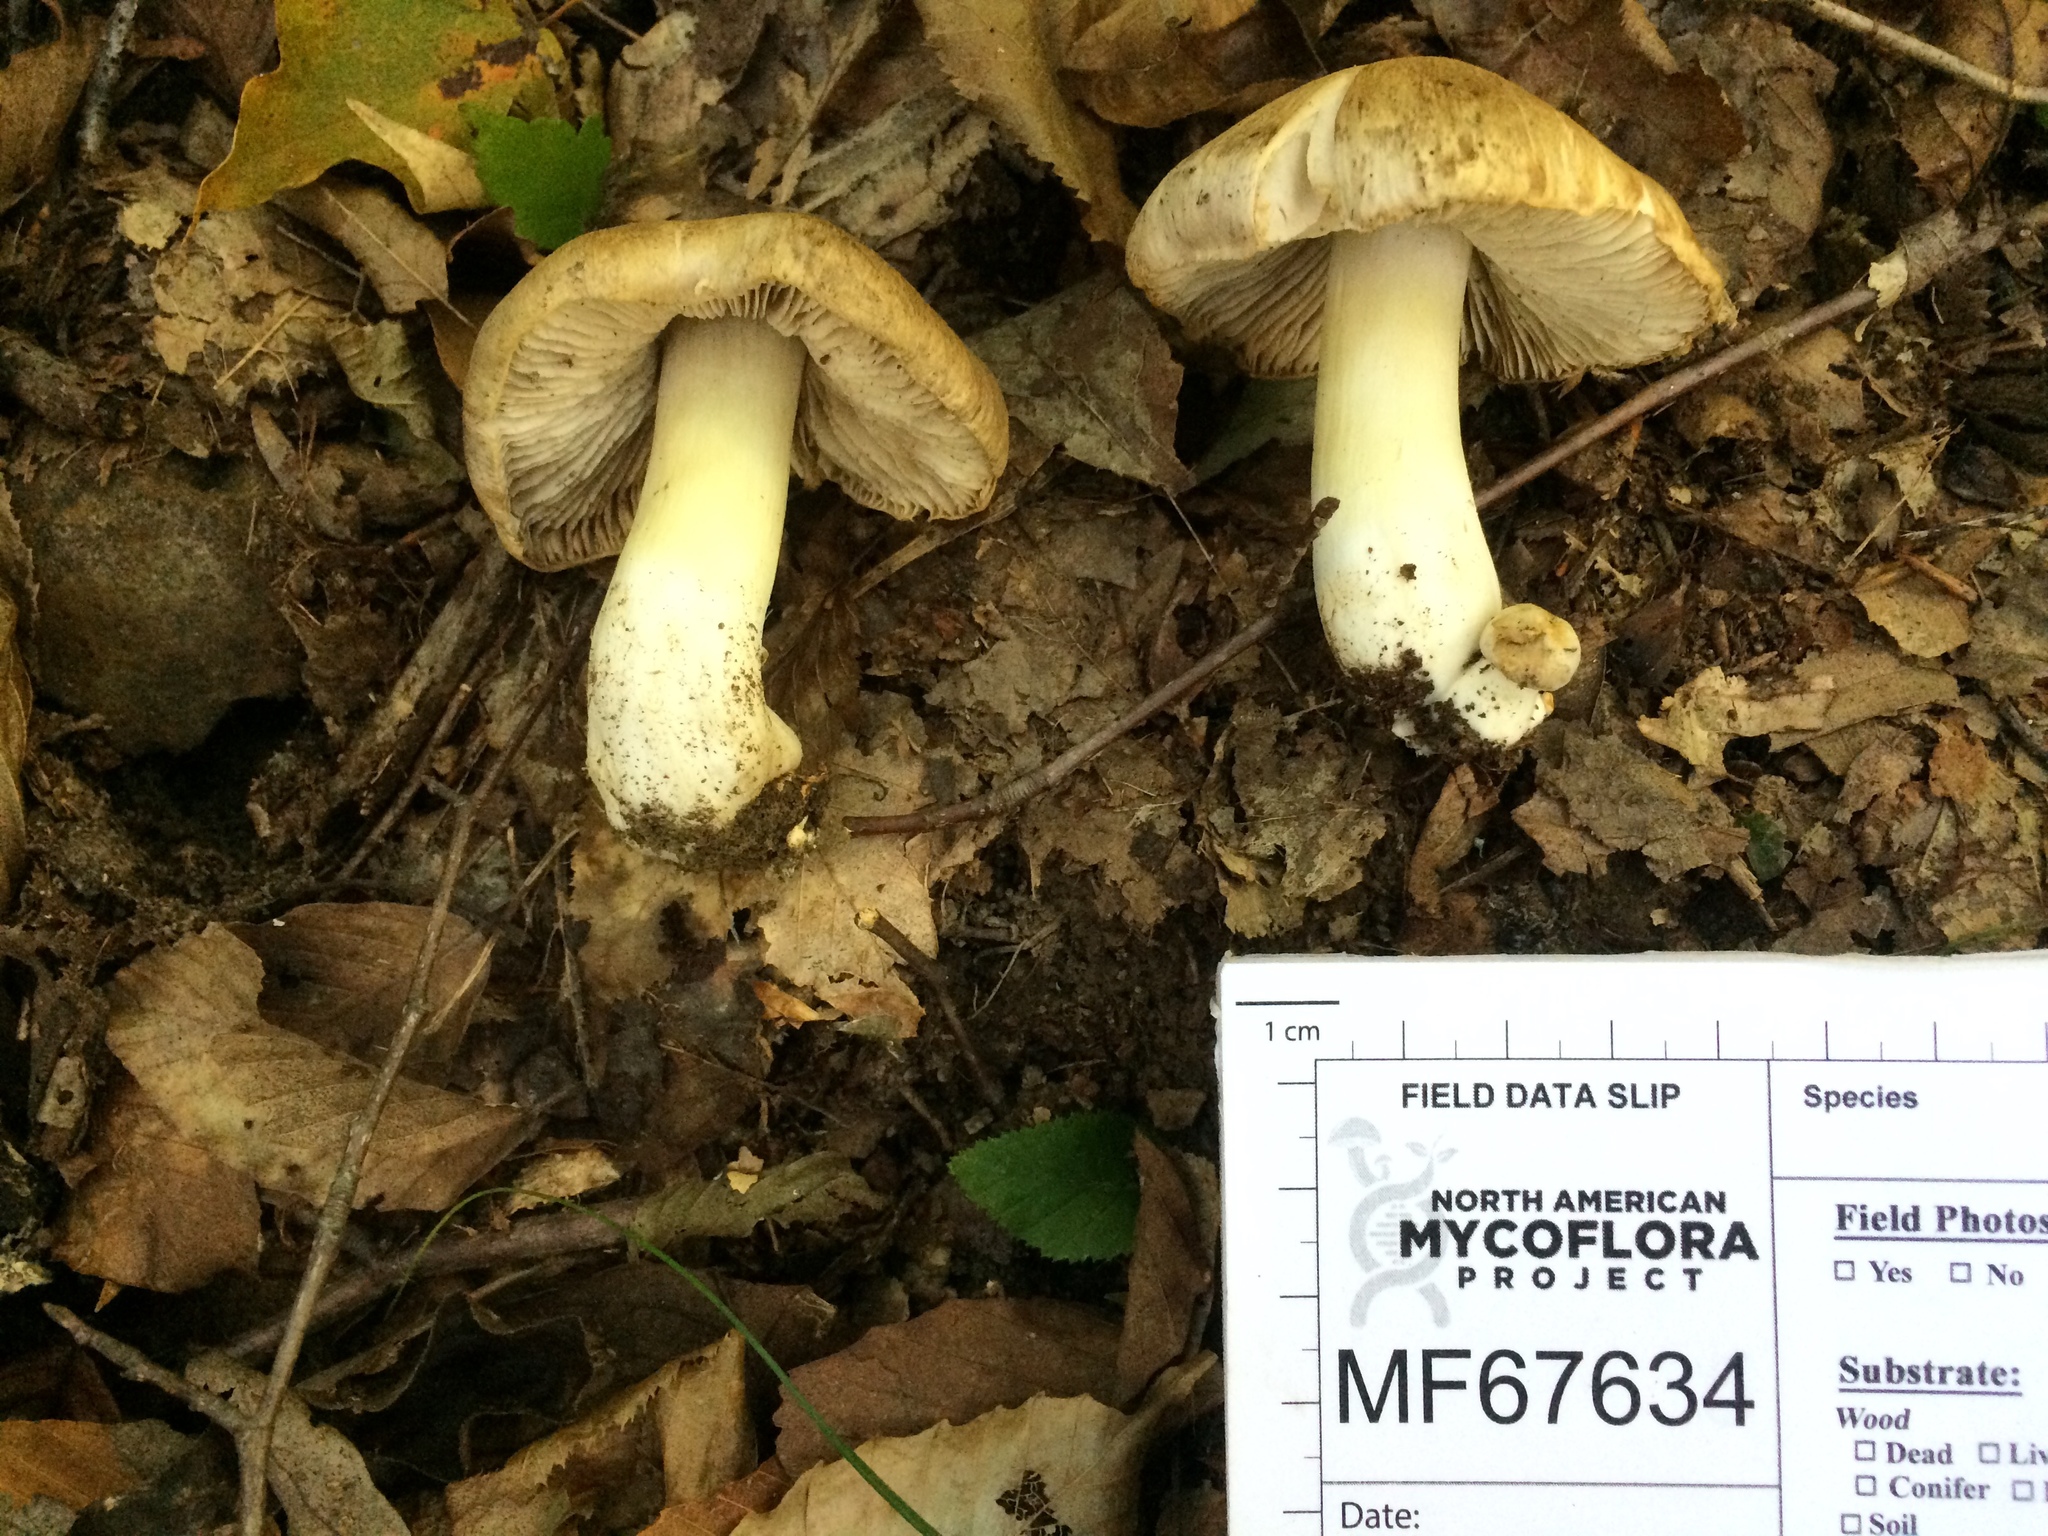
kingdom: Fungi
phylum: Basidiomycota
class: Agaricomycetes
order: Agaricales
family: Tricholomataceae
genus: Tricholoma
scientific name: Tricholoma vaccinum
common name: Scaly knight
